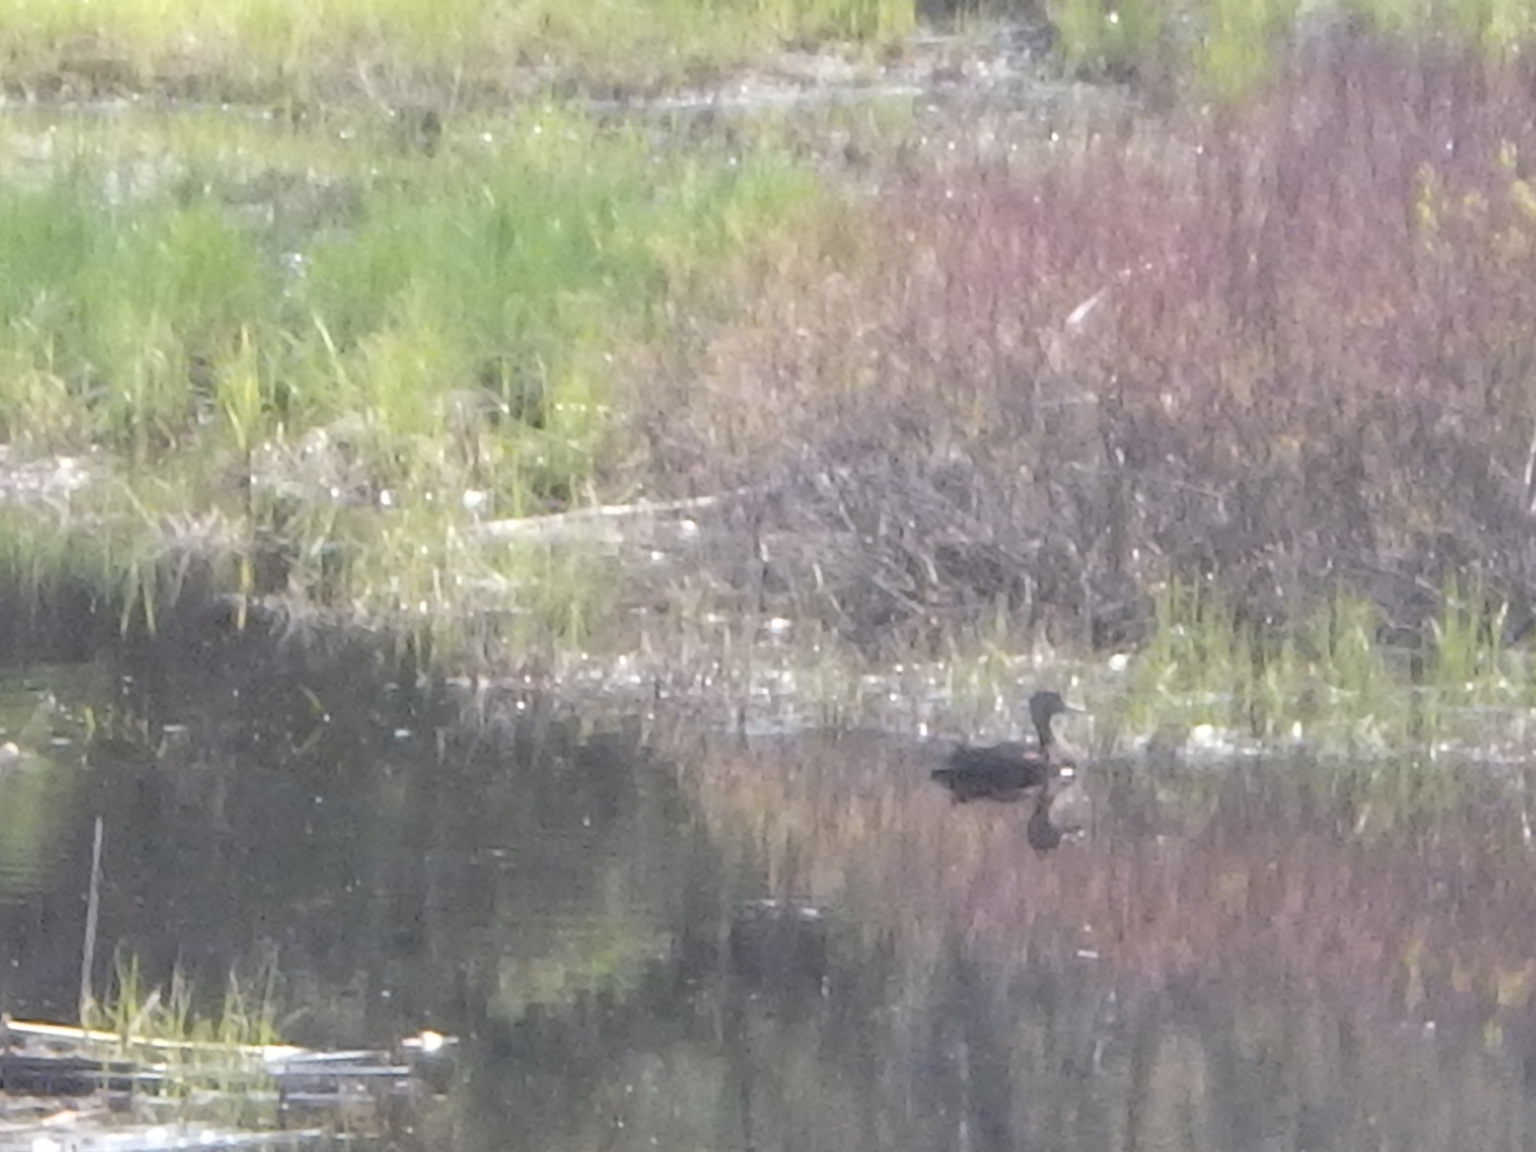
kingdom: Animalia
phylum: Chordata
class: Aves
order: Anseriformes
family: Anatidae
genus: Anas
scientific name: Anas rubripes
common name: American black duck
